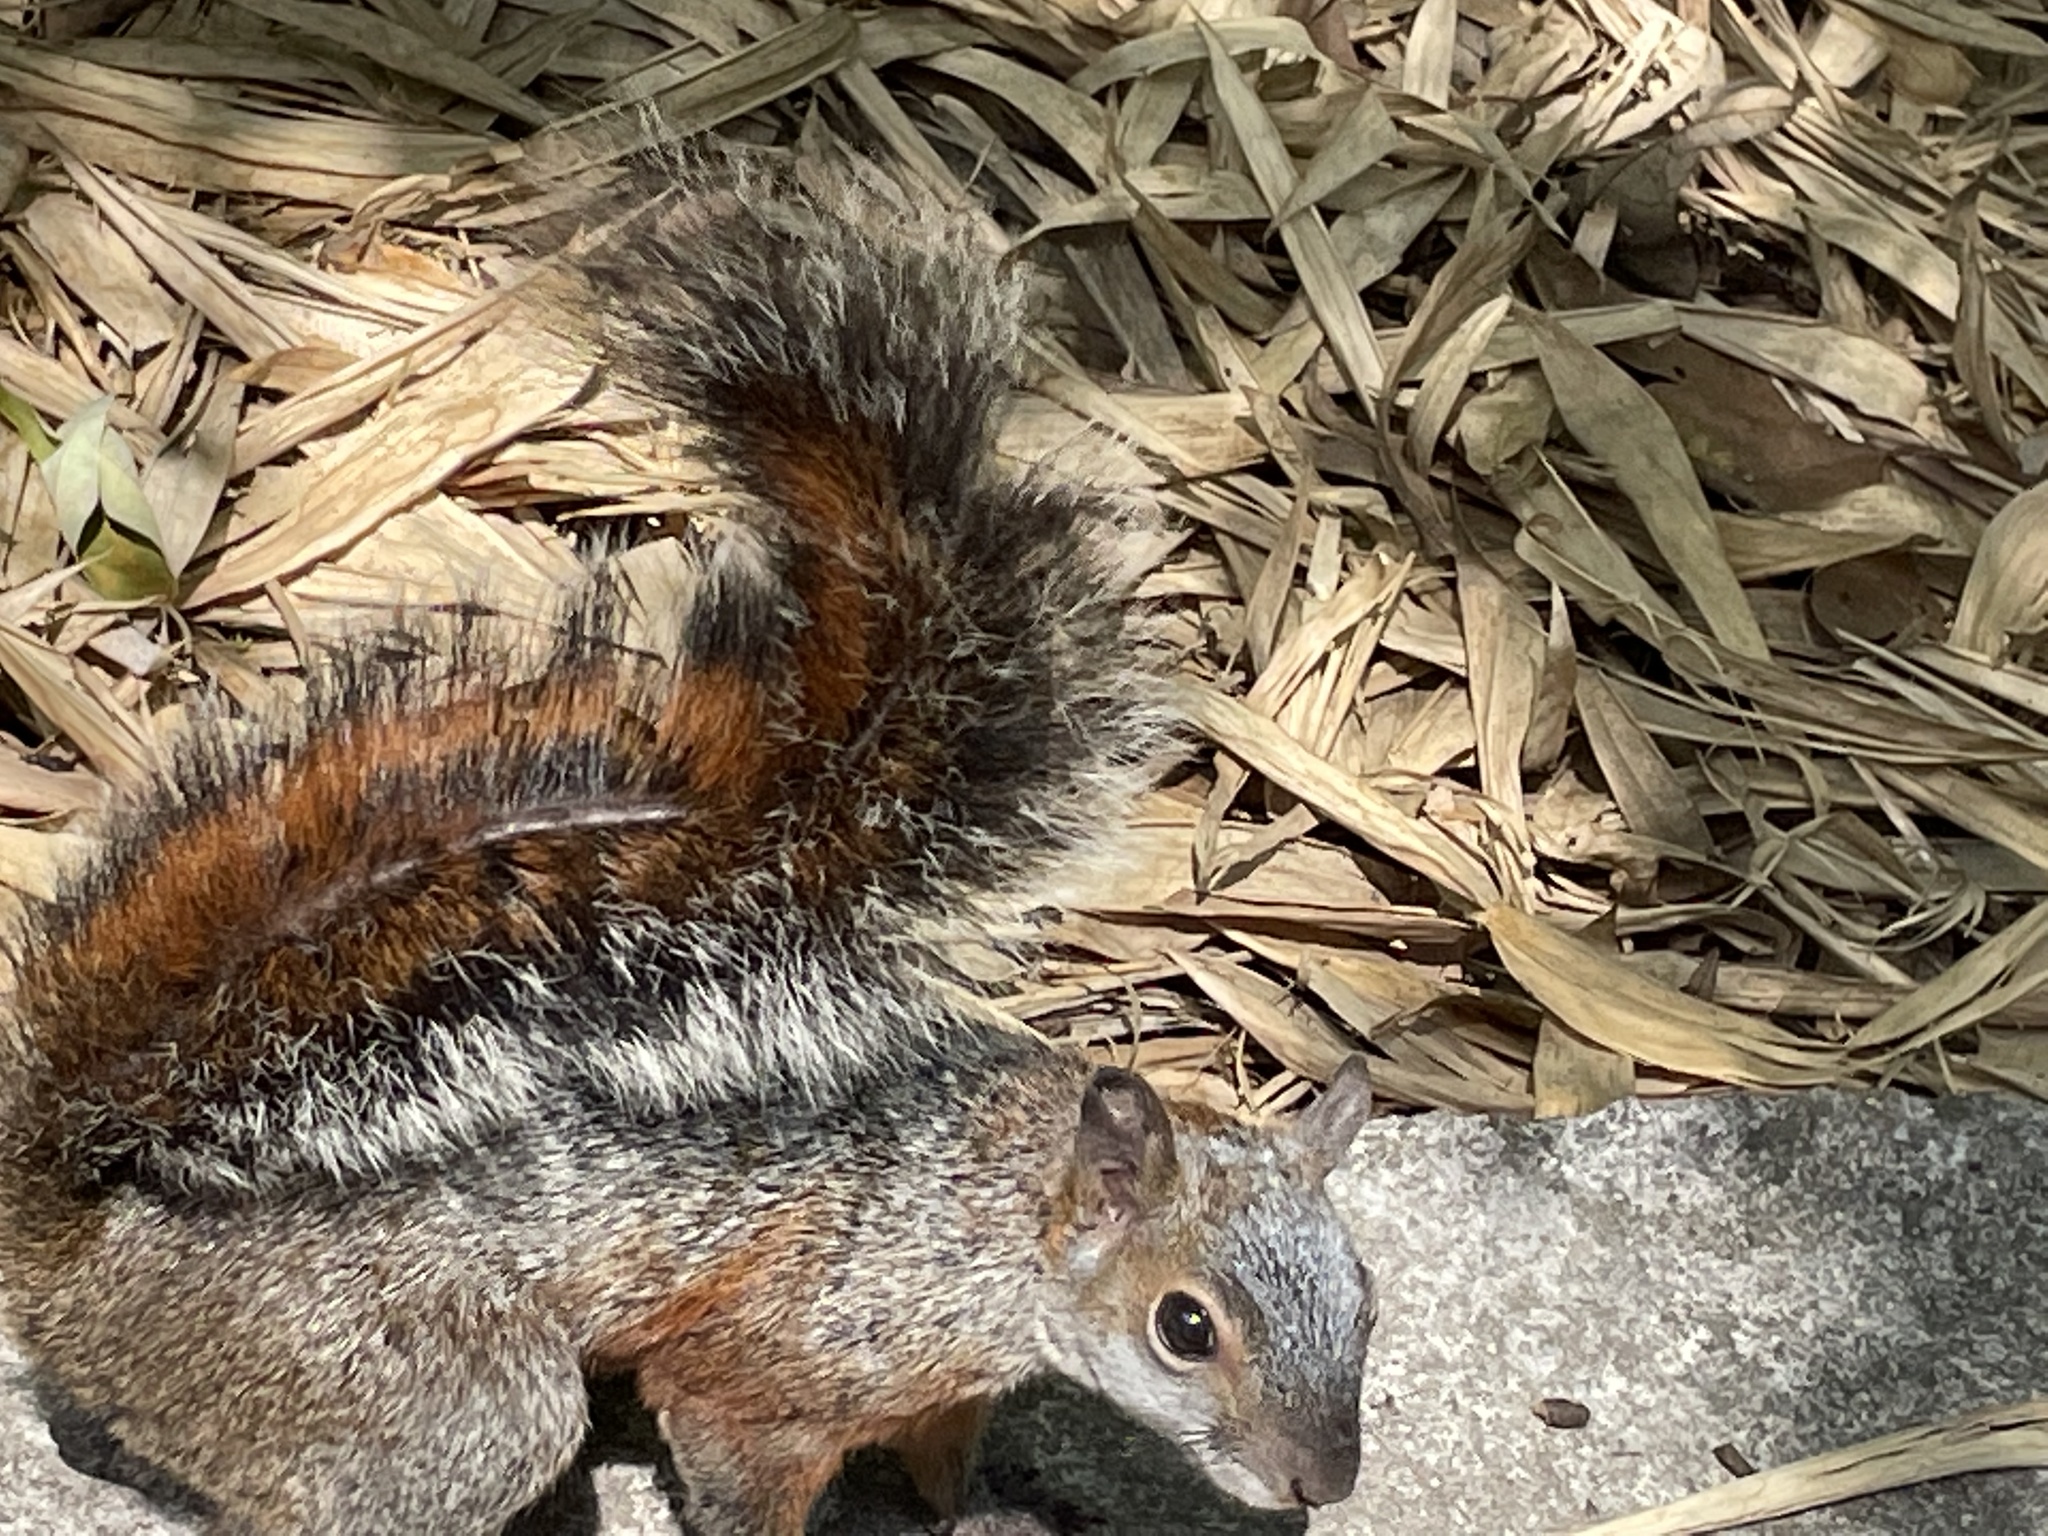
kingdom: Animalia
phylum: Chordata
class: Mammalia
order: Rodentia
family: Sciuridae
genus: Sciurus
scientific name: Sciurus aureogaster
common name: Red-bellied squirrel
